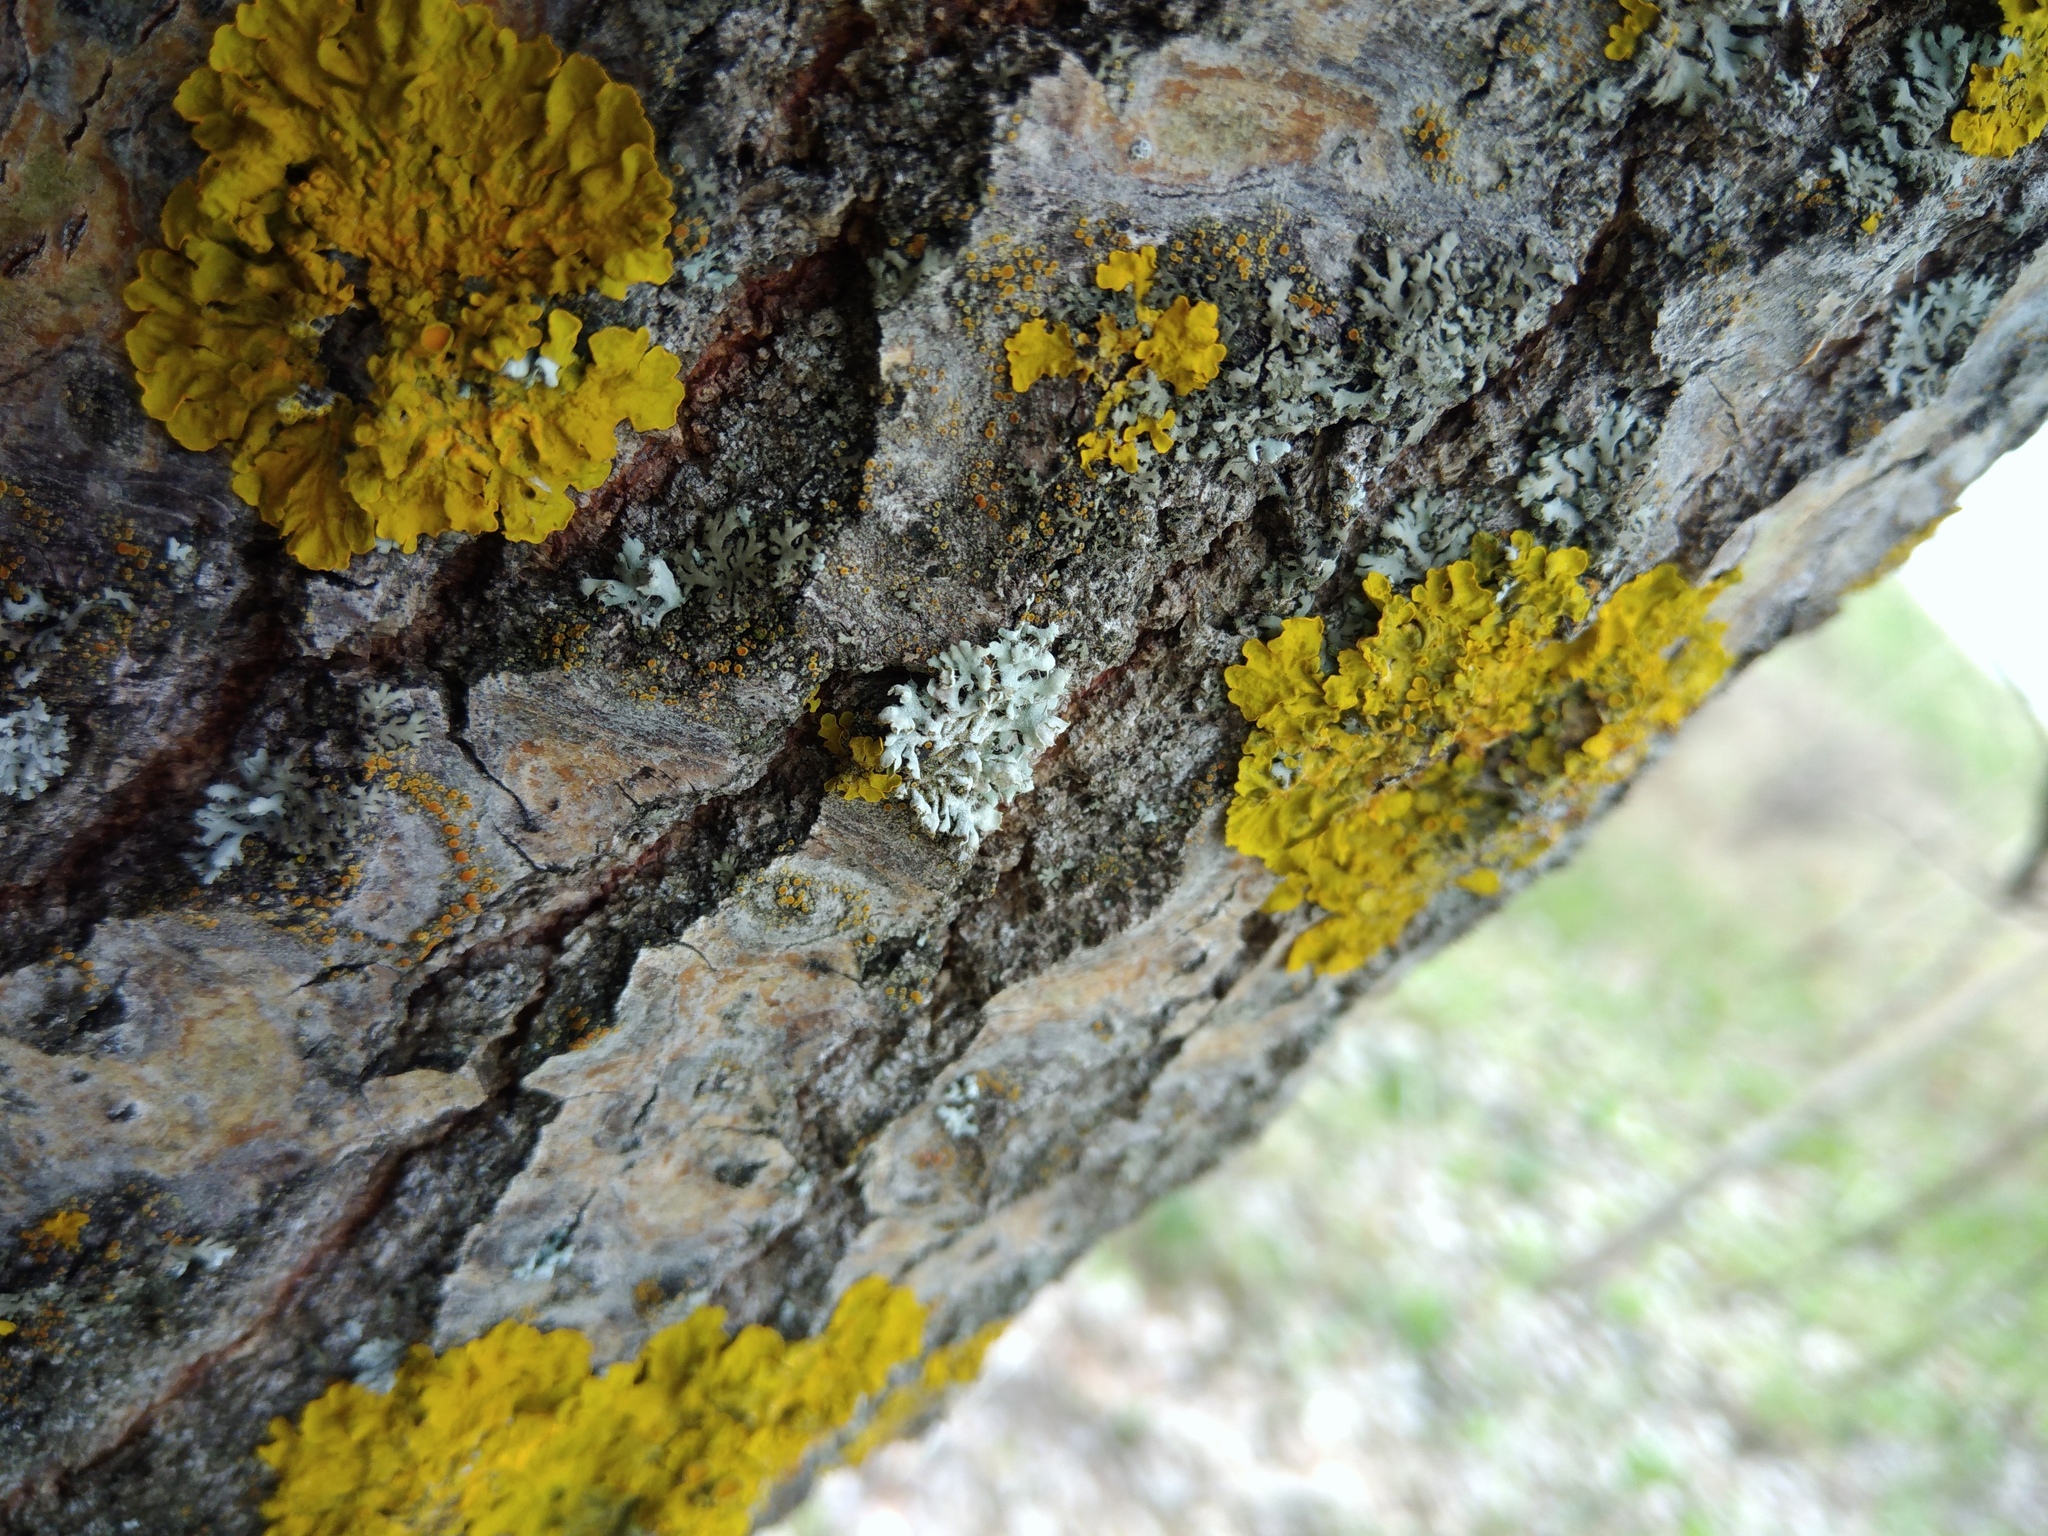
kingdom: Fungi
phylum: Ascomycota
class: Lecanoromycetes
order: Caliciales
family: Physciaceae
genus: Physcia
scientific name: Physcia adscendens
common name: Hooded rosette lichen
